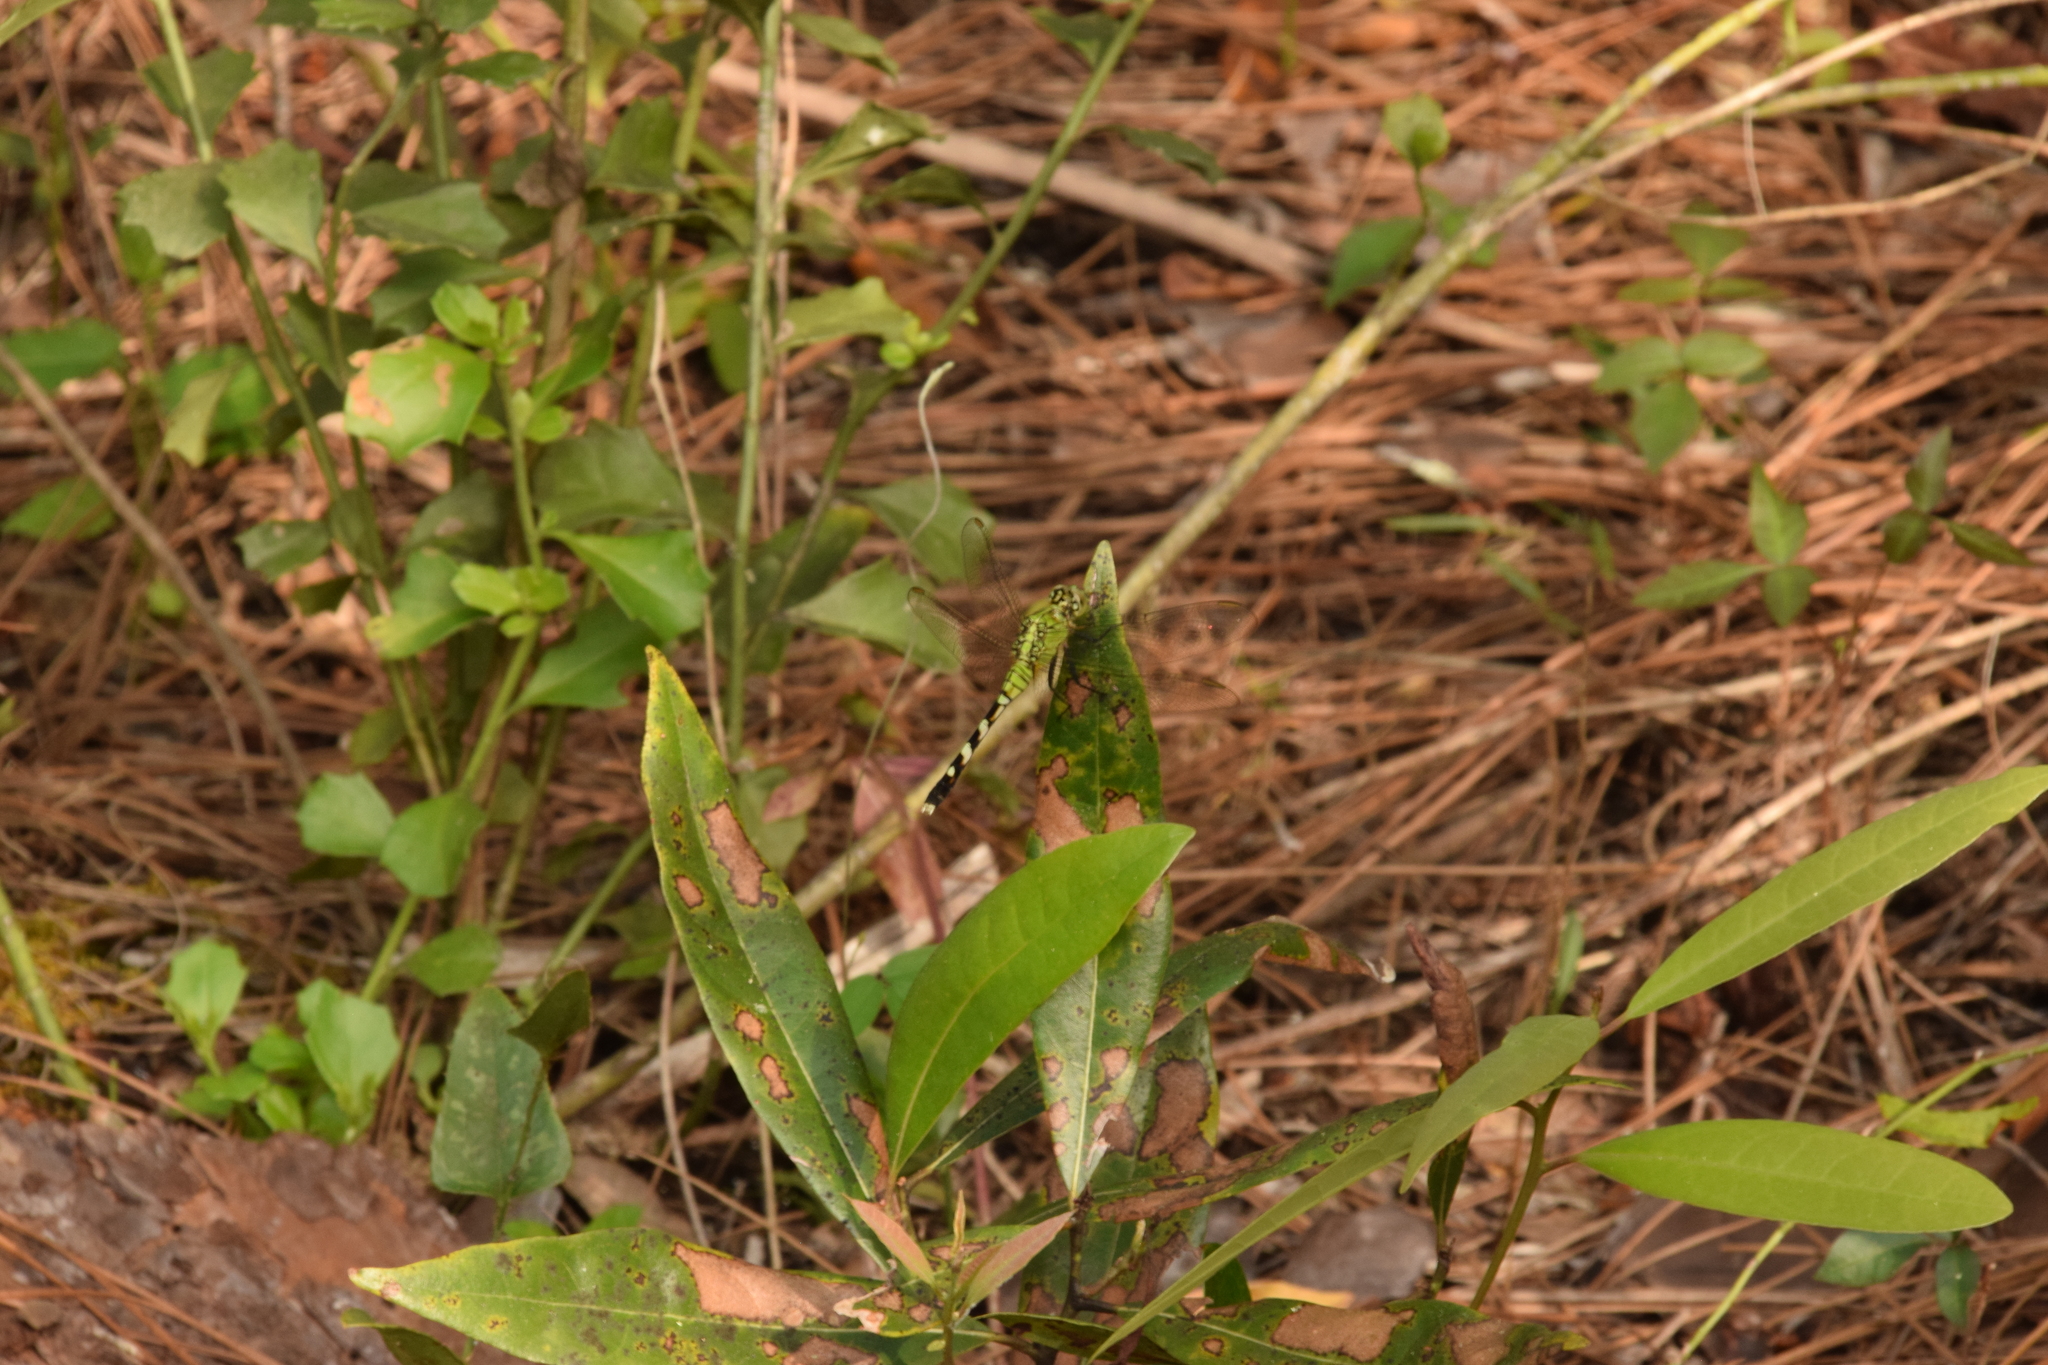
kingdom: Animalia
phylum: Arthropoda
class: Insecta
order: Odonata
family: Libellulidae
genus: Erythemis
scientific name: Erythemis simplicicollis
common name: Eastern pondhawk
